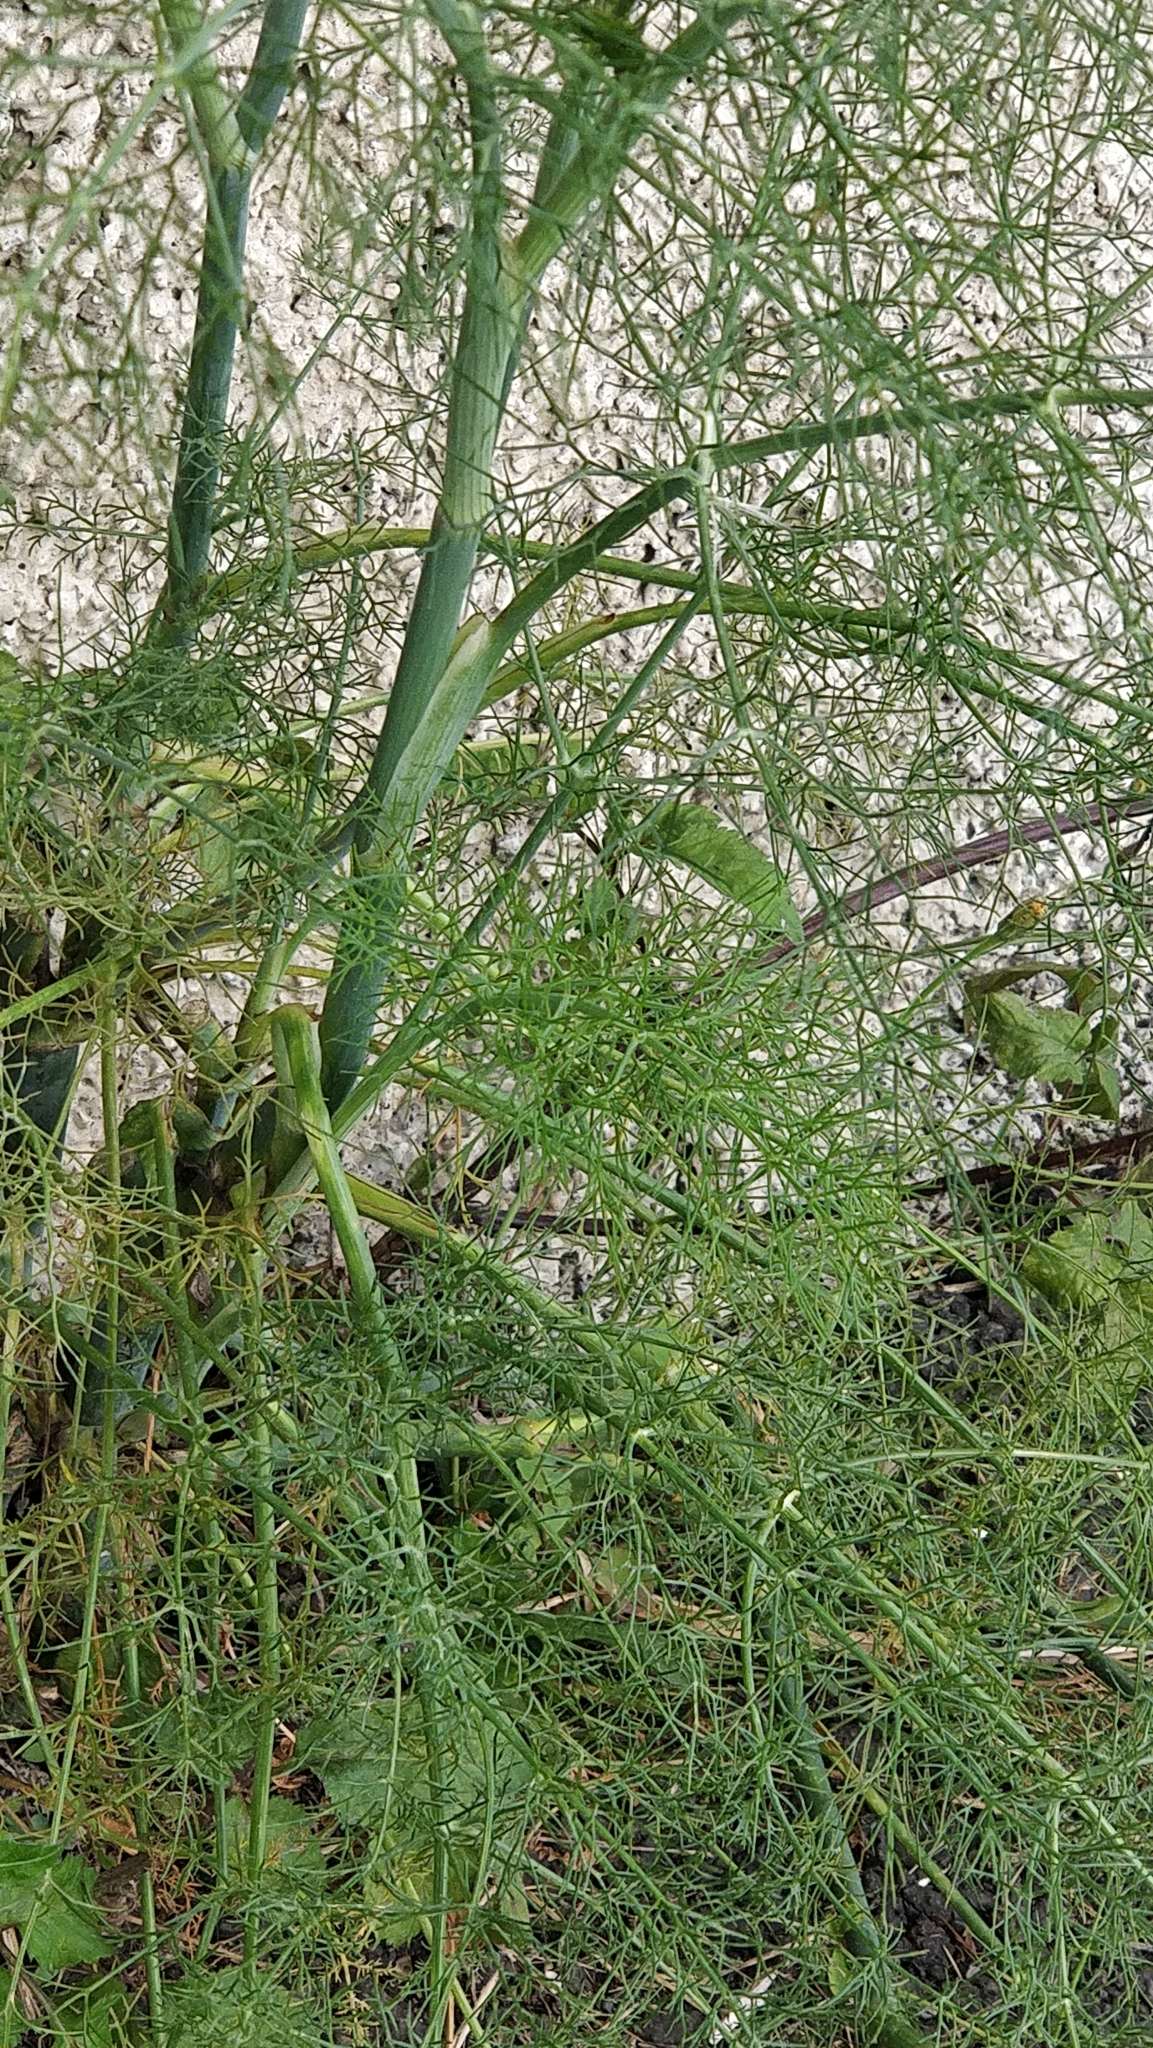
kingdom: Plantae
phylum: Tracheophyta
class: Magnoliopsida
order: Apiales
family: Apiaceae
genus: Foeniculum
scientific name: Foeniculum vulgare
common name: Fennel
